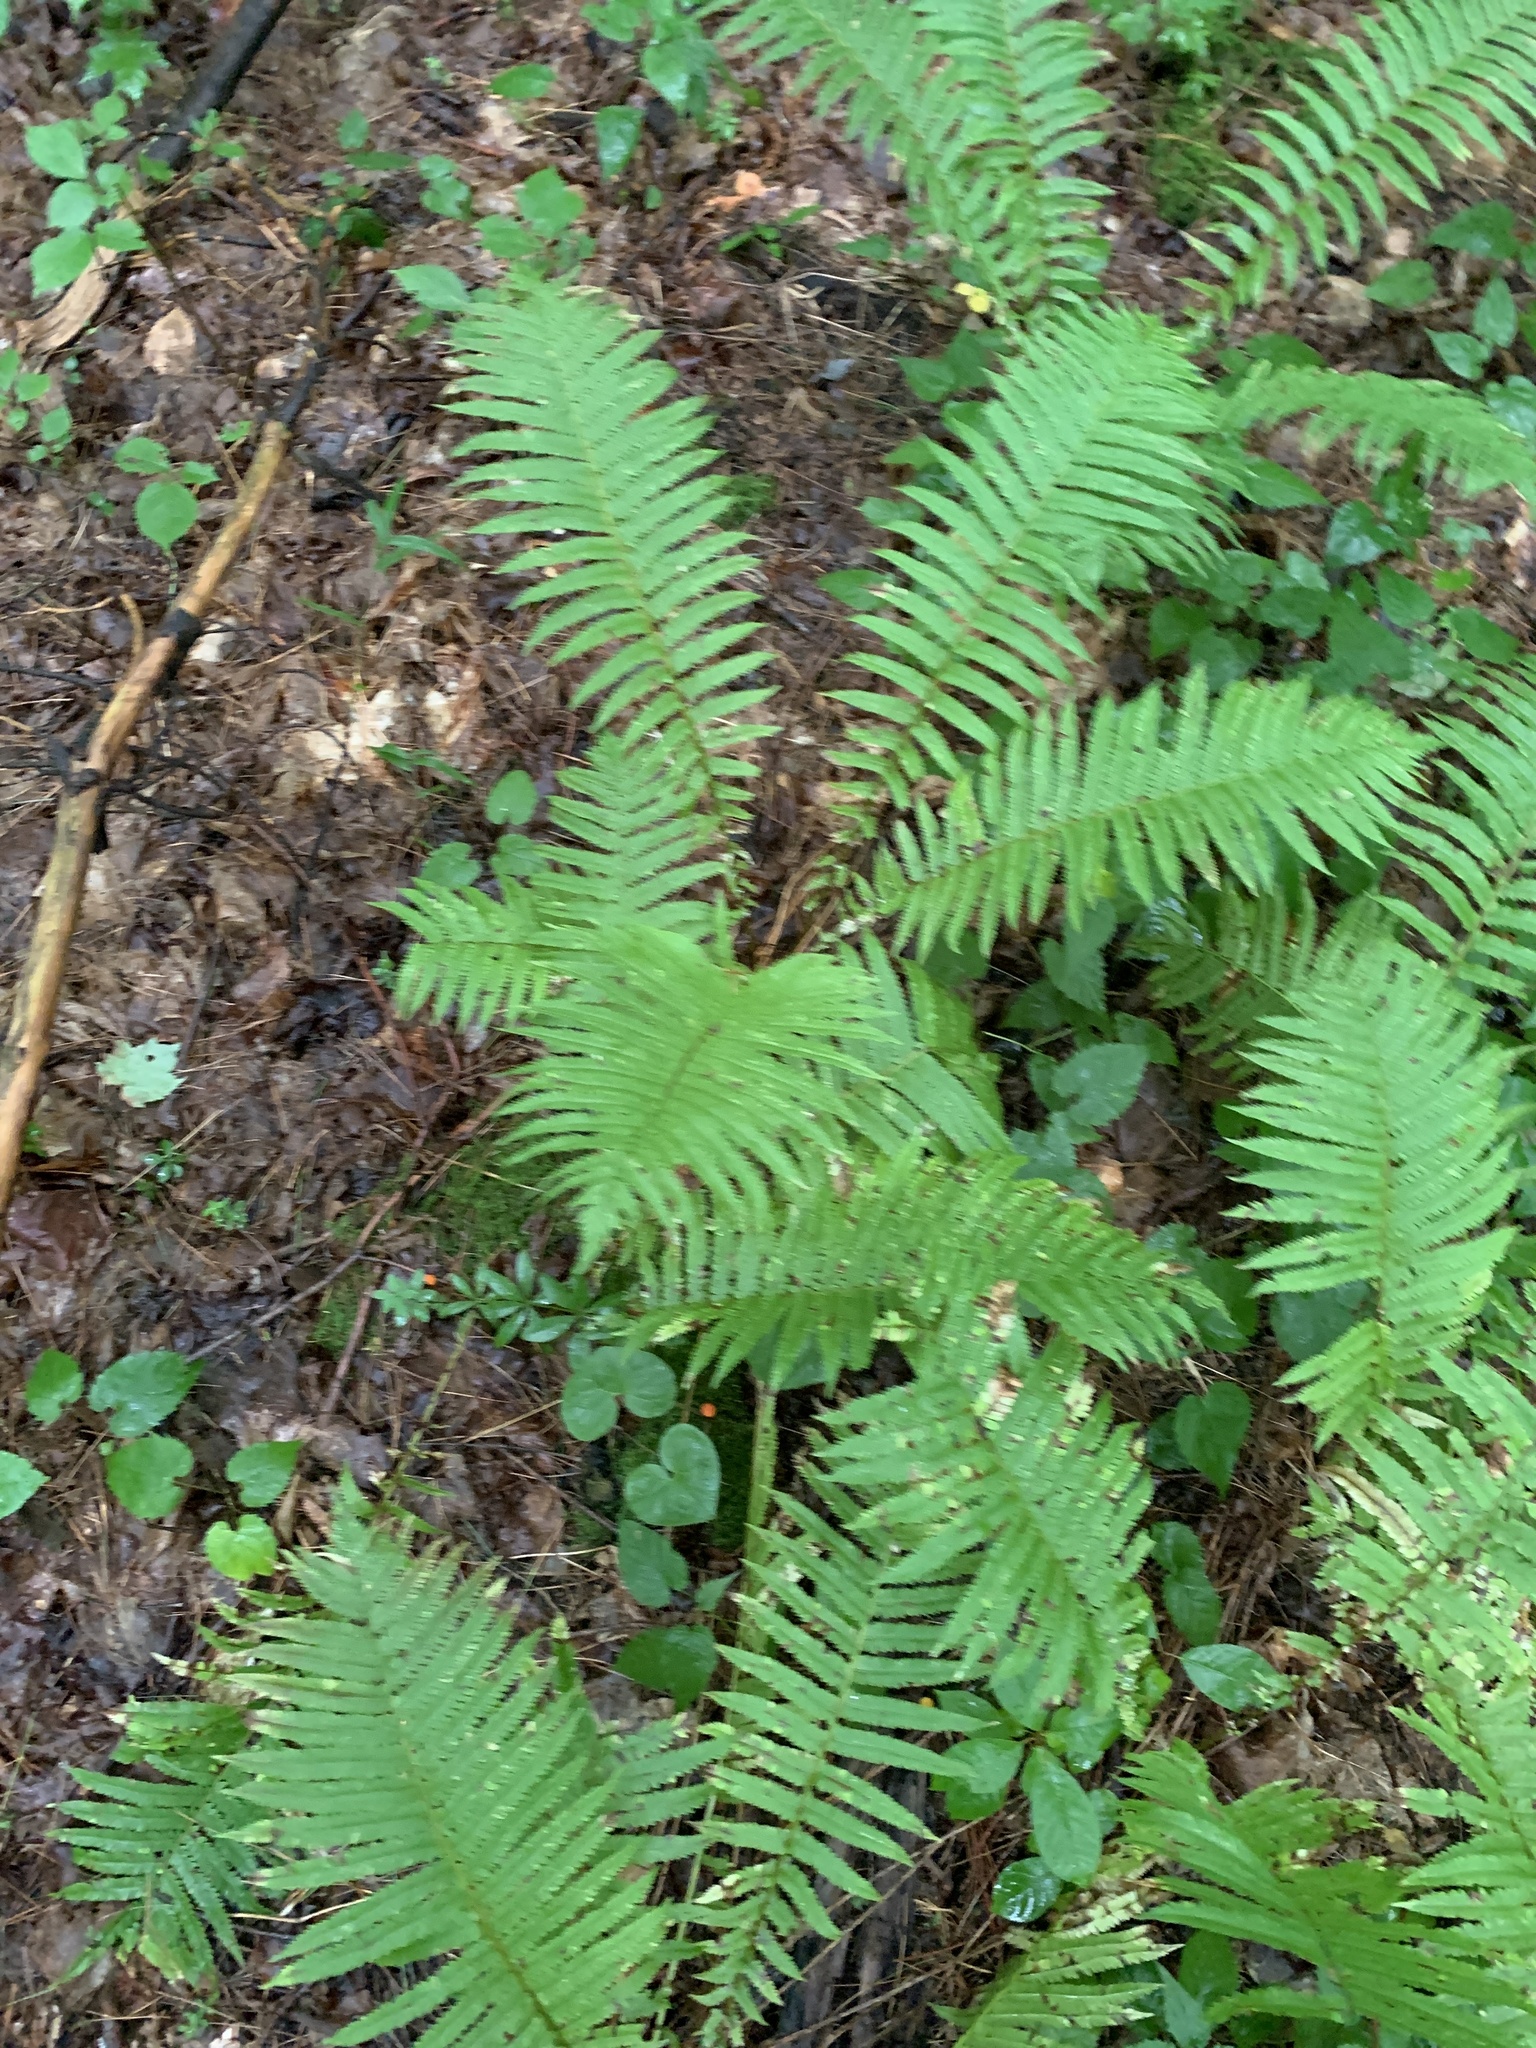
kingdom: Plantae
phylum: Tracheophyta
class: Polypodiopsida
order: Polypodiales
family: Onocleaceae
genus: Matteuccia
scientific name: Matteuccia struthiopteris
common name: Ostrich fern
